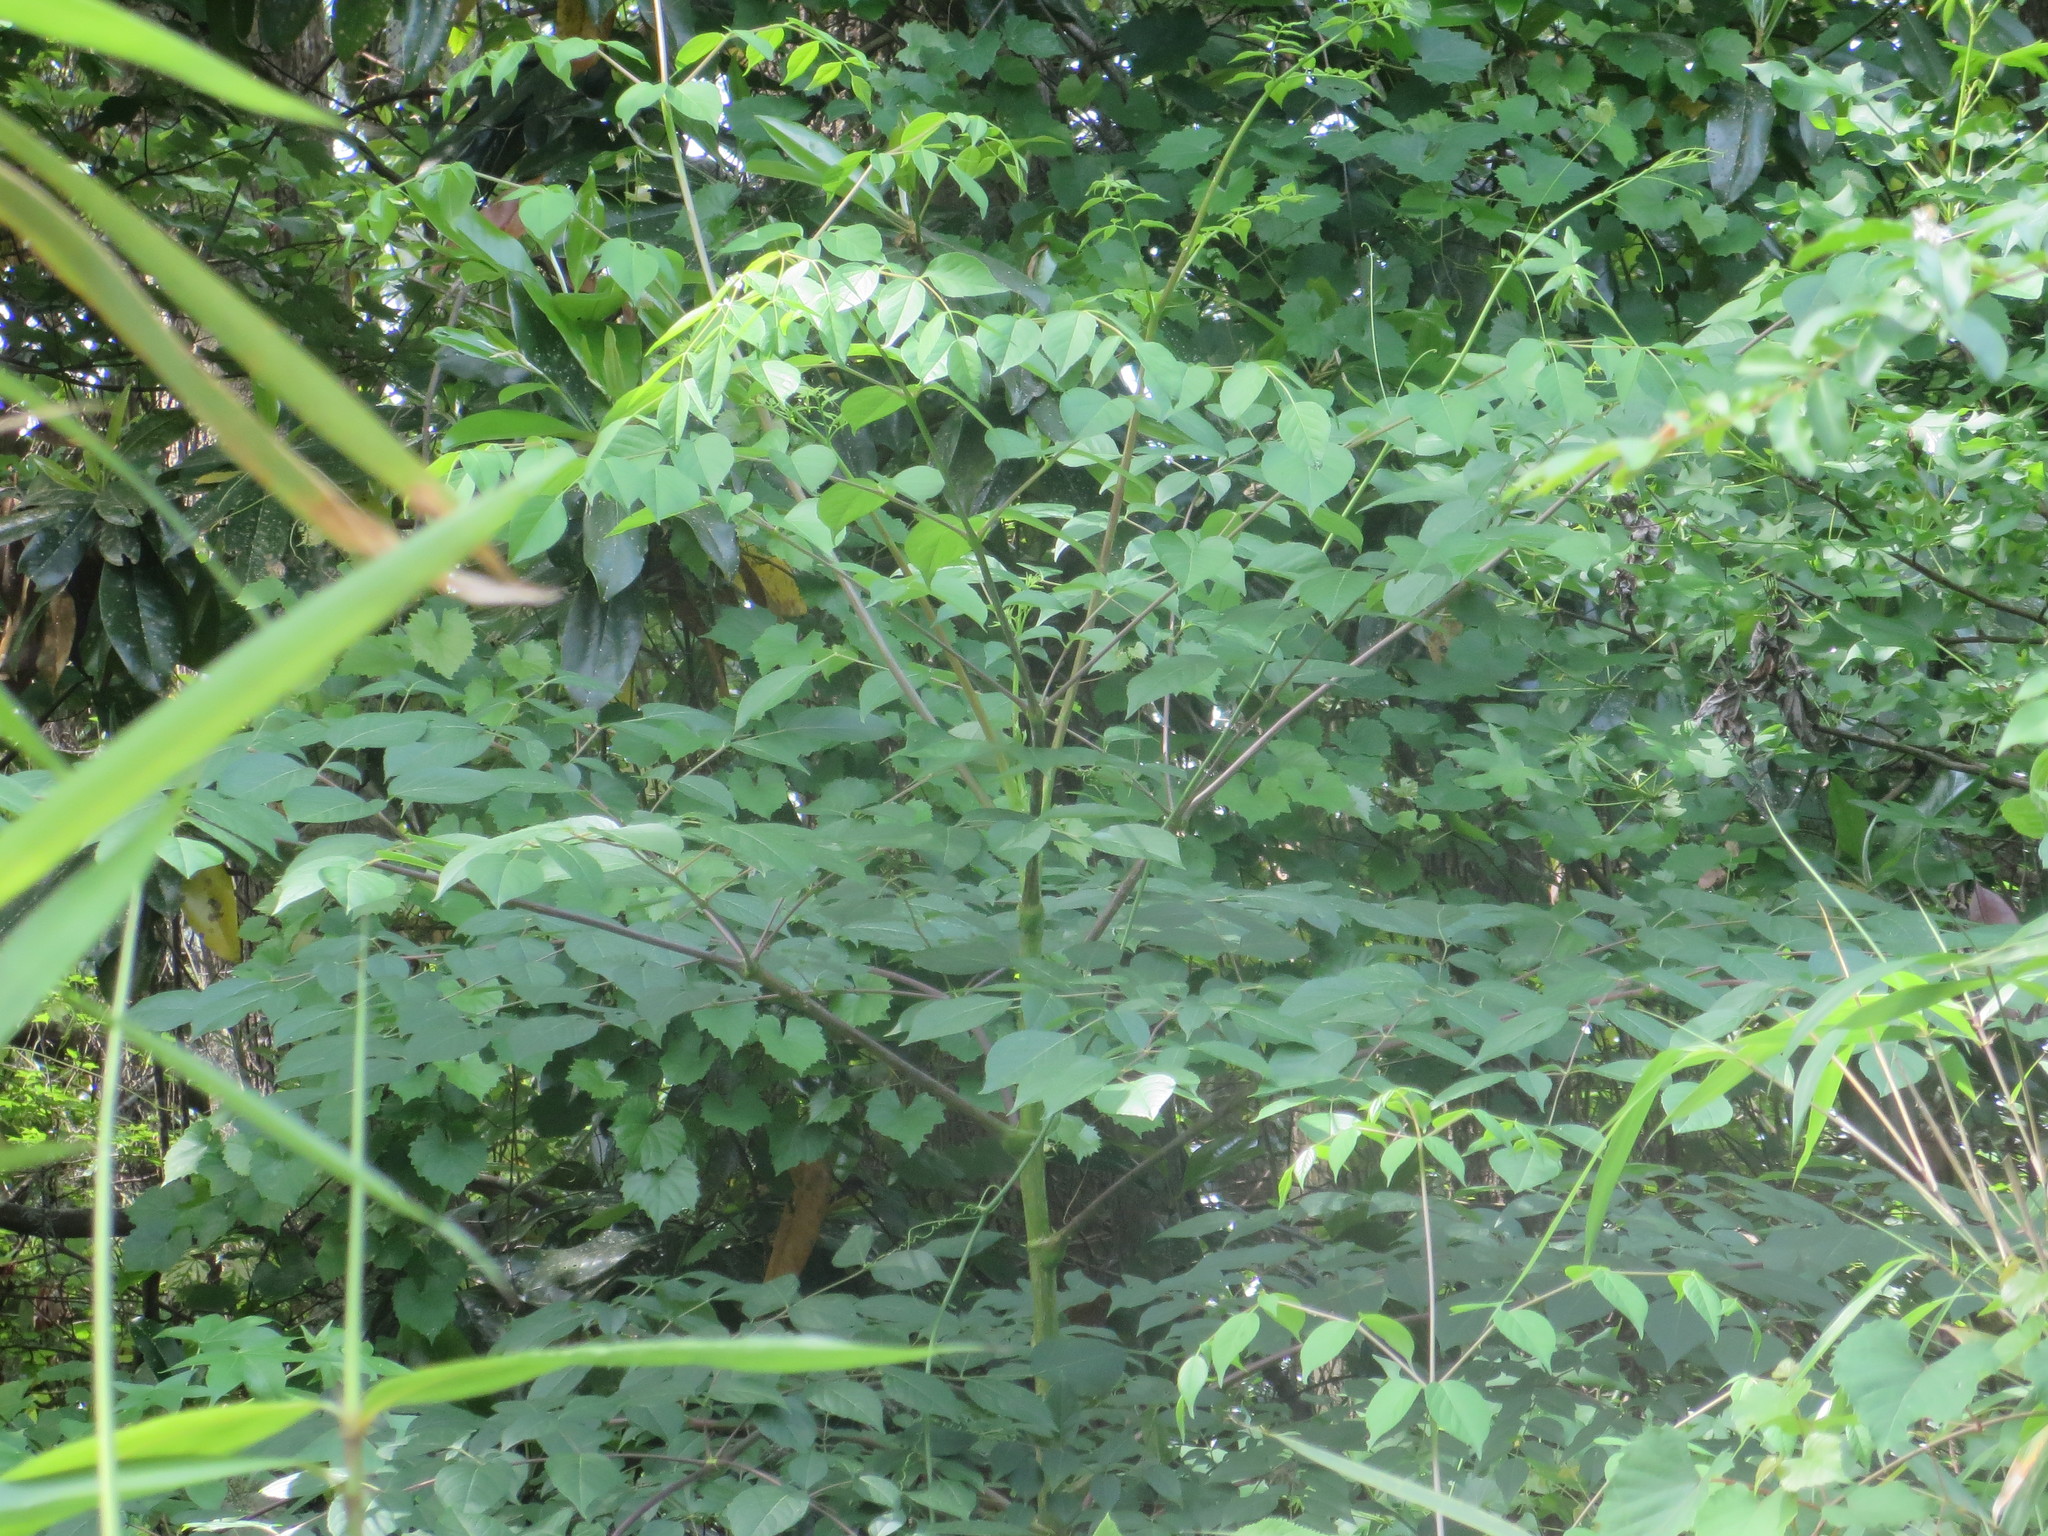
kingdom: Plantae
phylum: Tracheophyta
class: Magnoliopsida
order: Apiales
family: Araliaceae
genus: Aralia
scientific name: Aralia spinosa
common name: Hercules'-club
